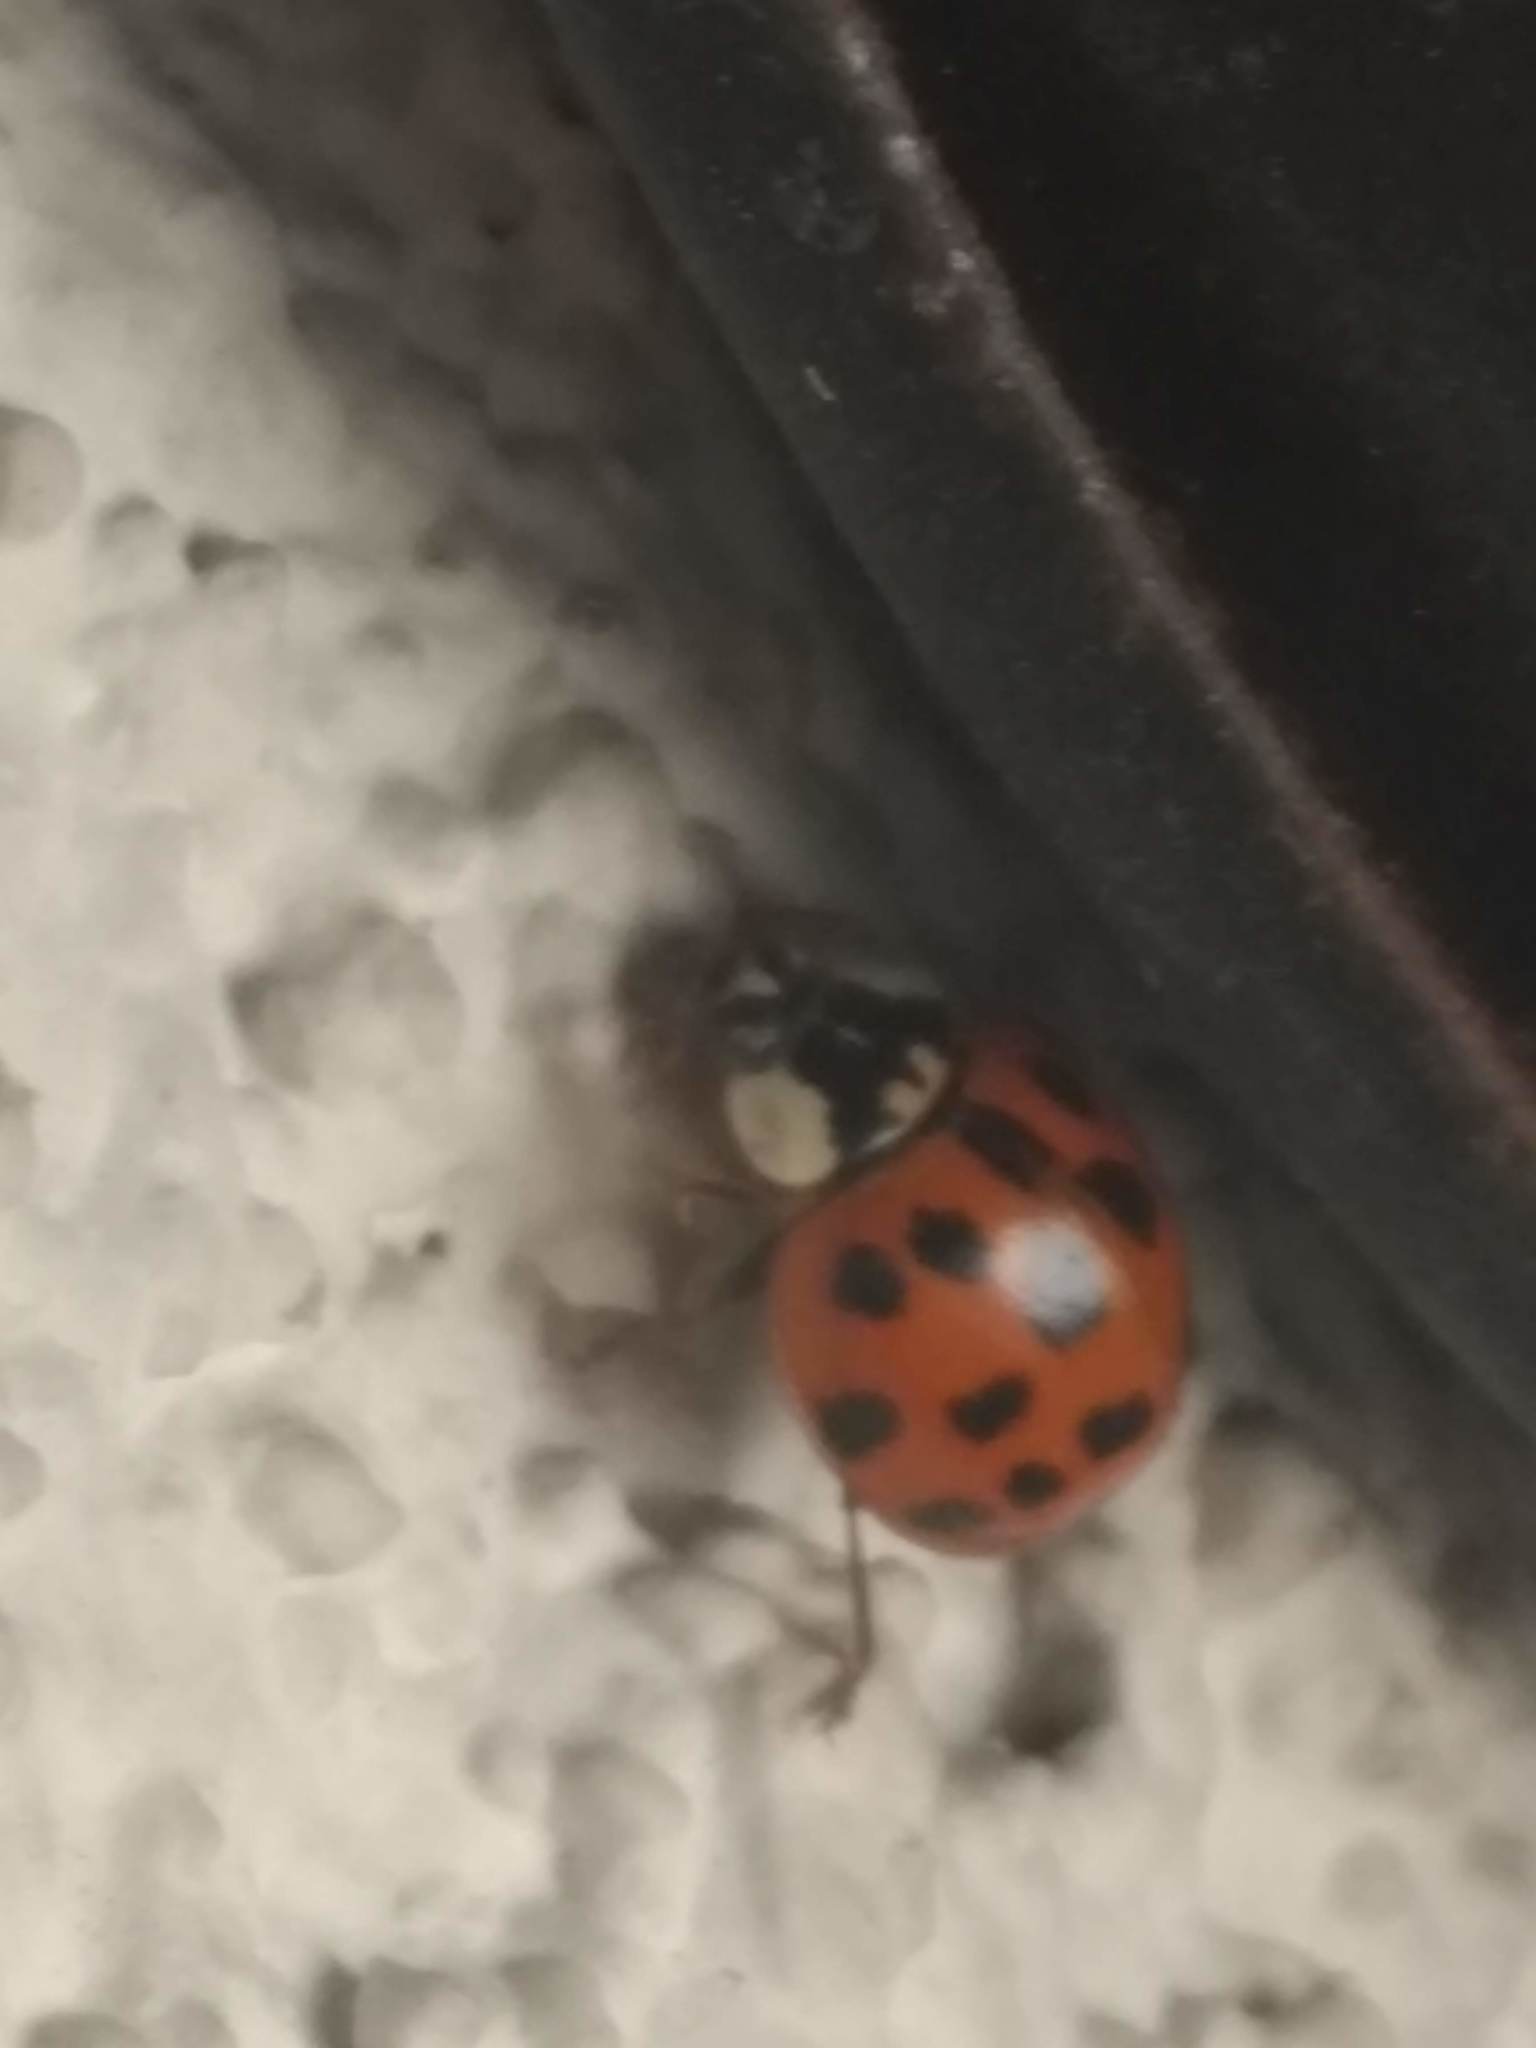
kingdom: Animalia
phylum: Arthropoda
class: Insecta
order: Coleoptera
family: Coccinellidae
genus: Harmonia
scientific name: Harmonia axyridis
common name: Harlequin ladybird
